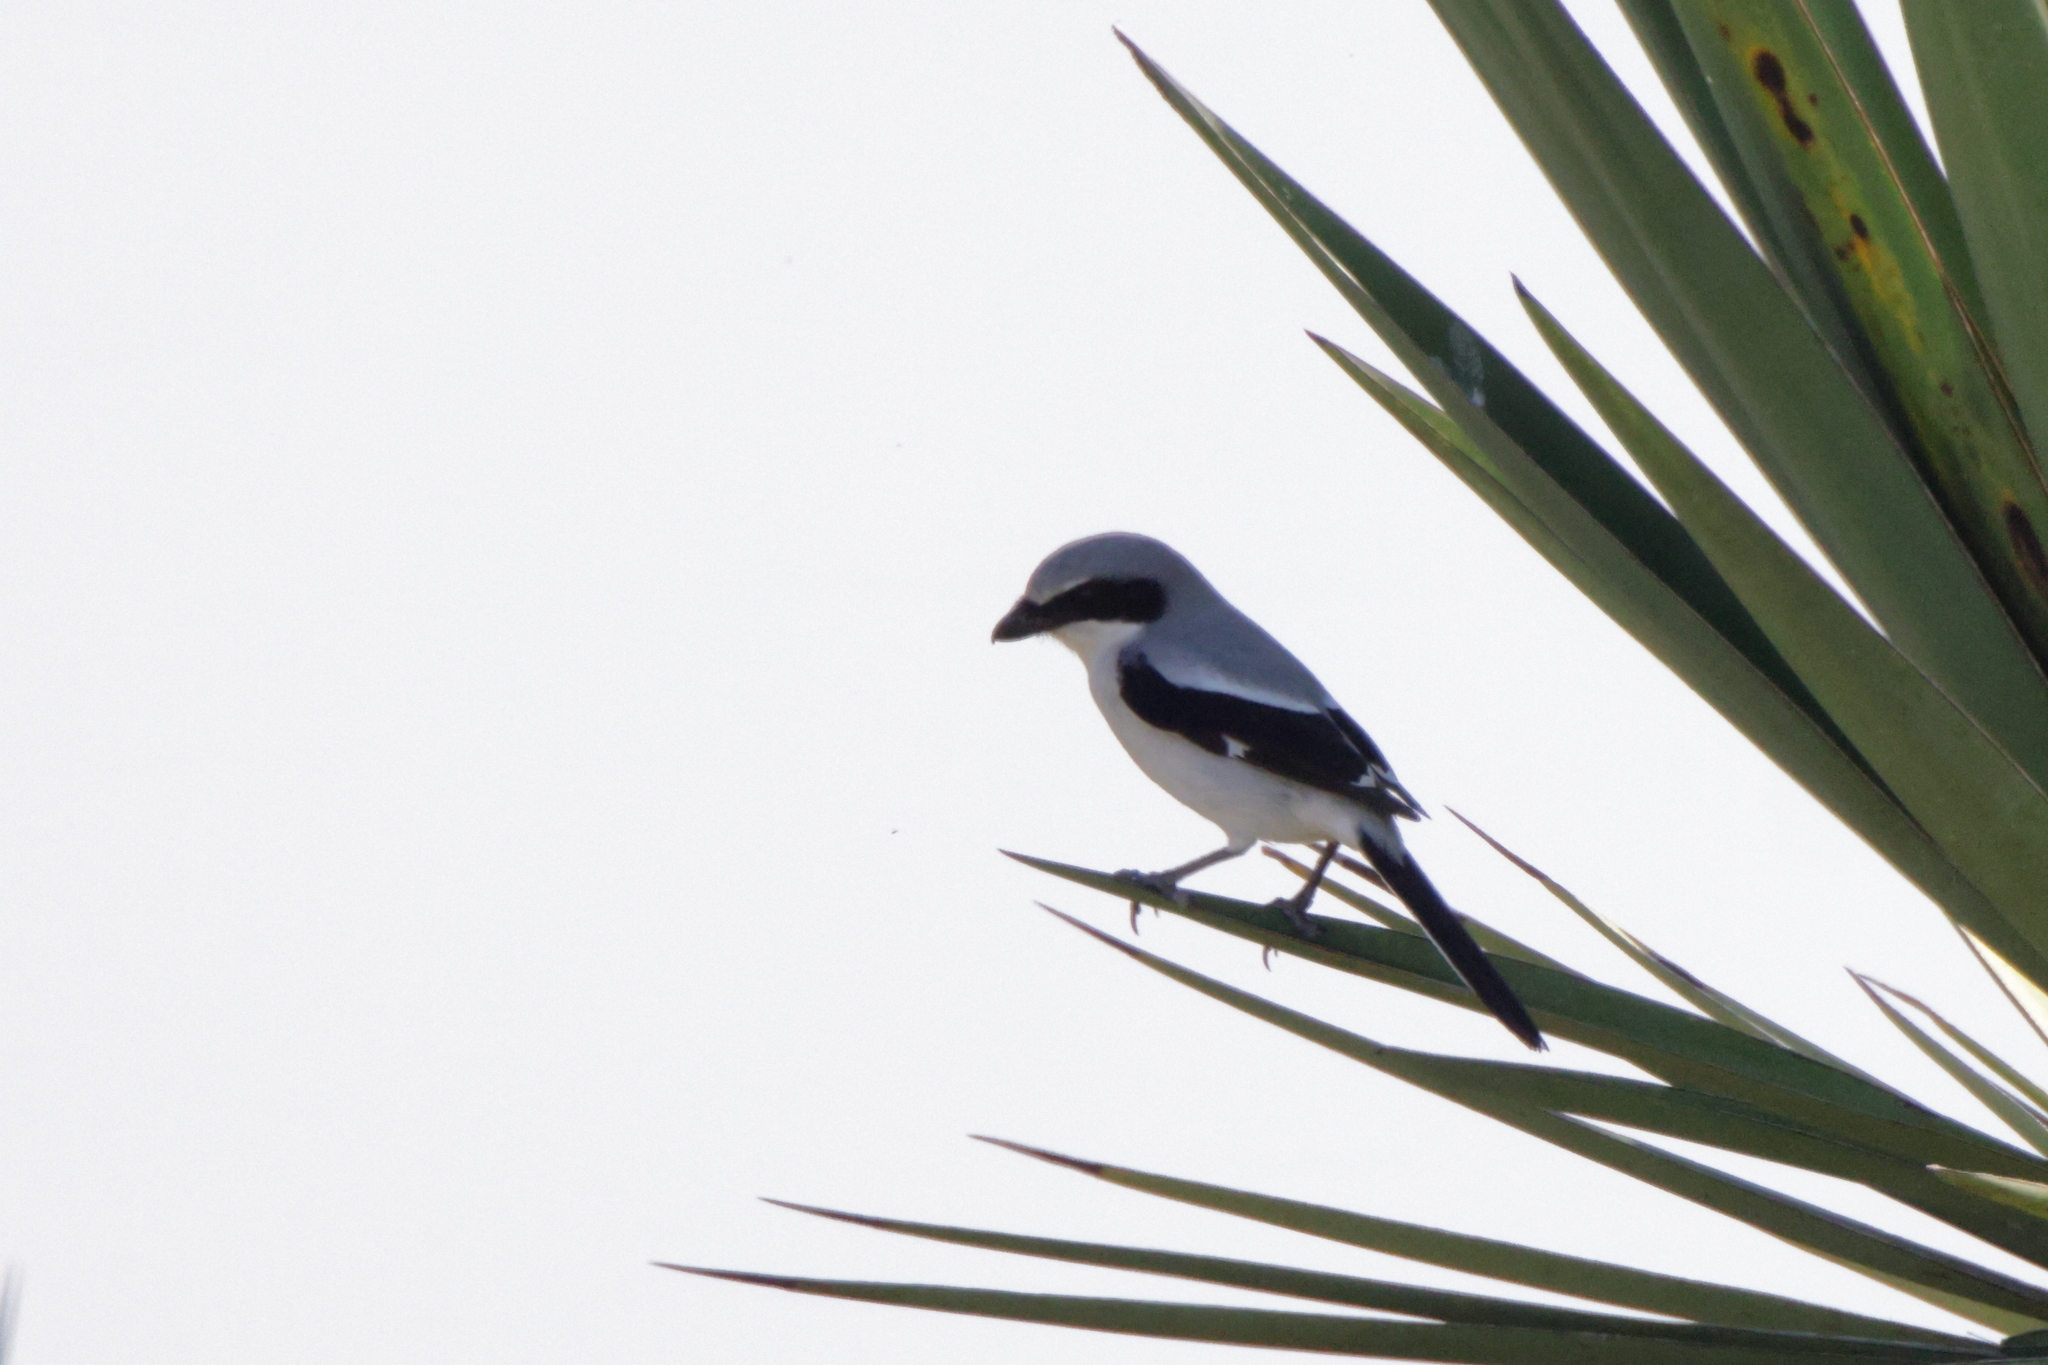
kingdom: Animalia
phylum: Chordata
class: Aves
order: Passeriformes
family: Laniidae
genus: Lanius
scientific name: Lanius ludovicianus
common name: Loggerhead shrike
